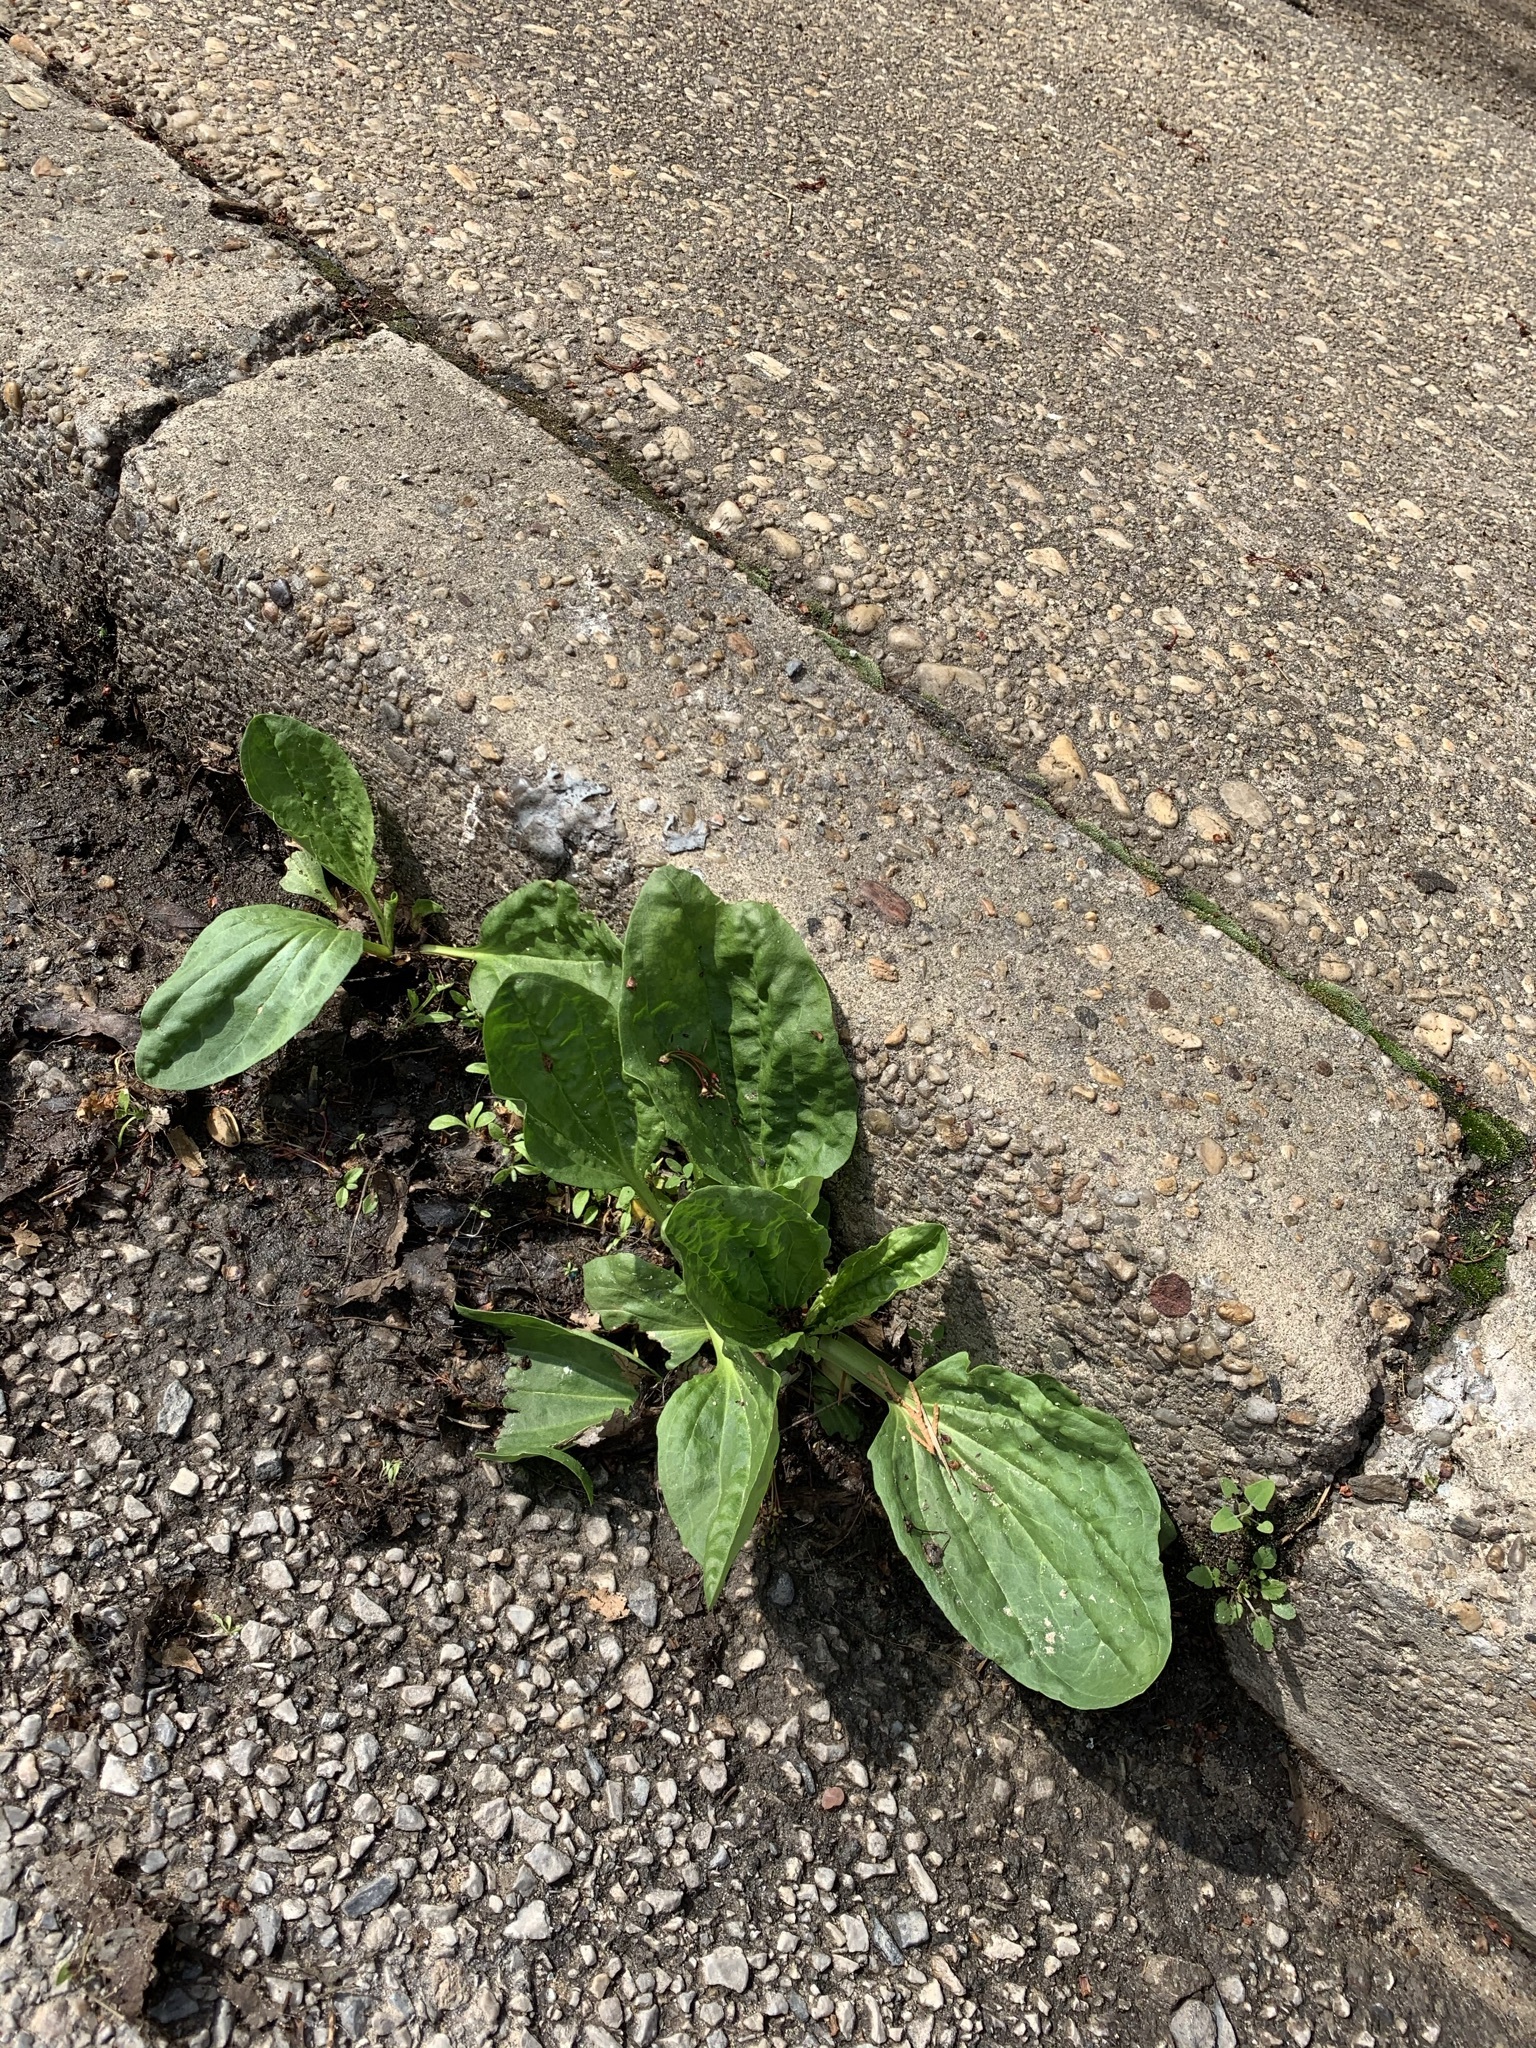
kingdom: Plantae
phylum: Tracheophyta
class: Magnoliopsida
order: Lamiales
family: Plantaginaceae
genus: Plantago
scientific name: Plantago major
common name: Common plantain
